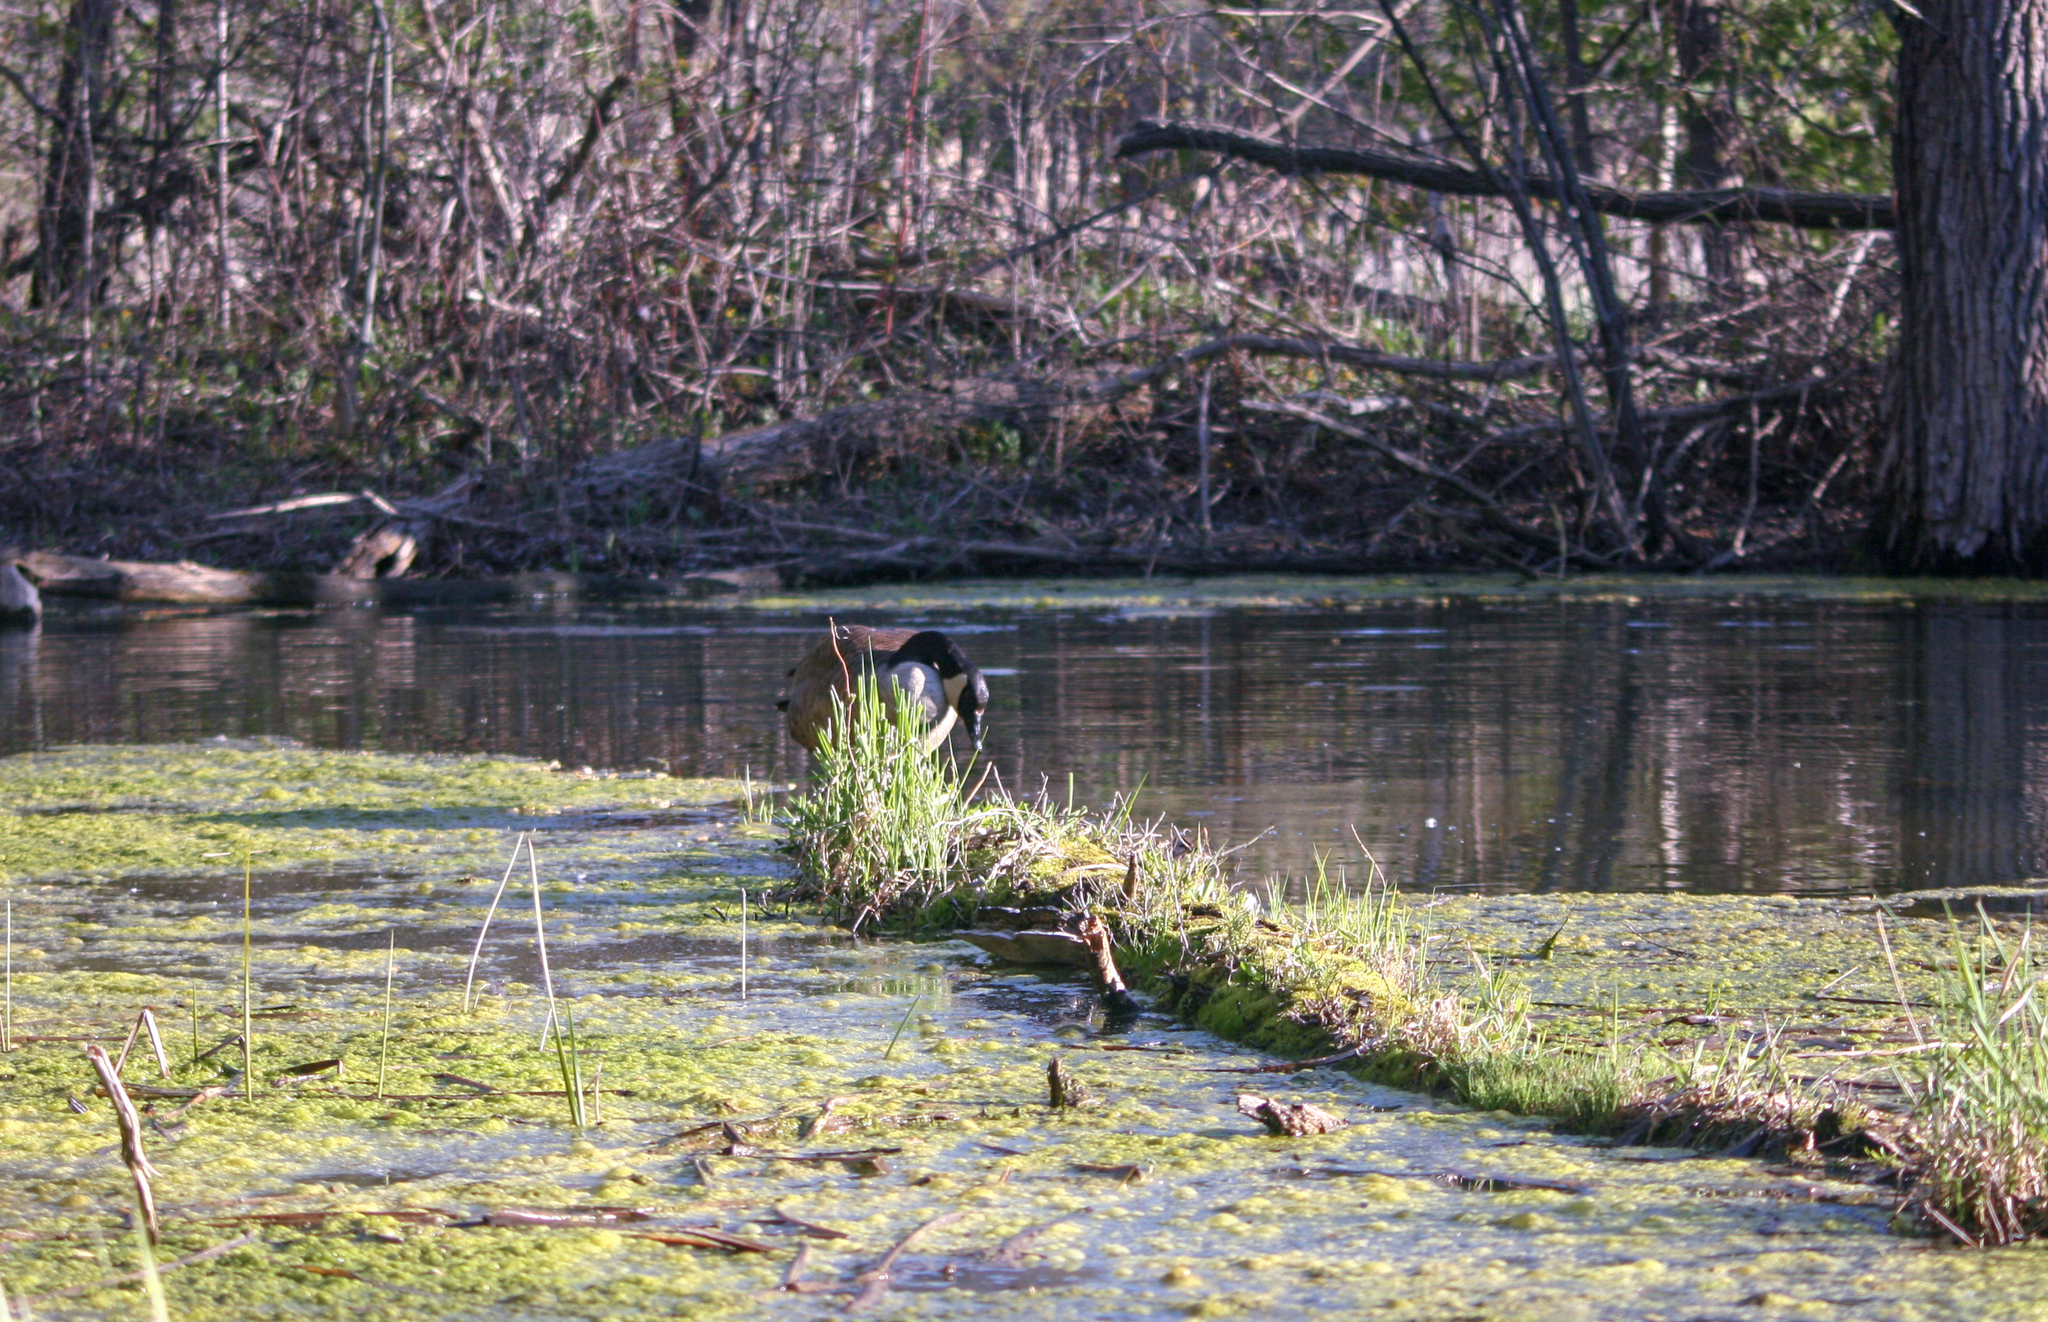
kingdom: Animalia
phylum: Chordata
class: Aves
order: Anseriformes
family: Anatidae
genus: Branta
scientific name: Branta canadensis
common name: Canada goose
